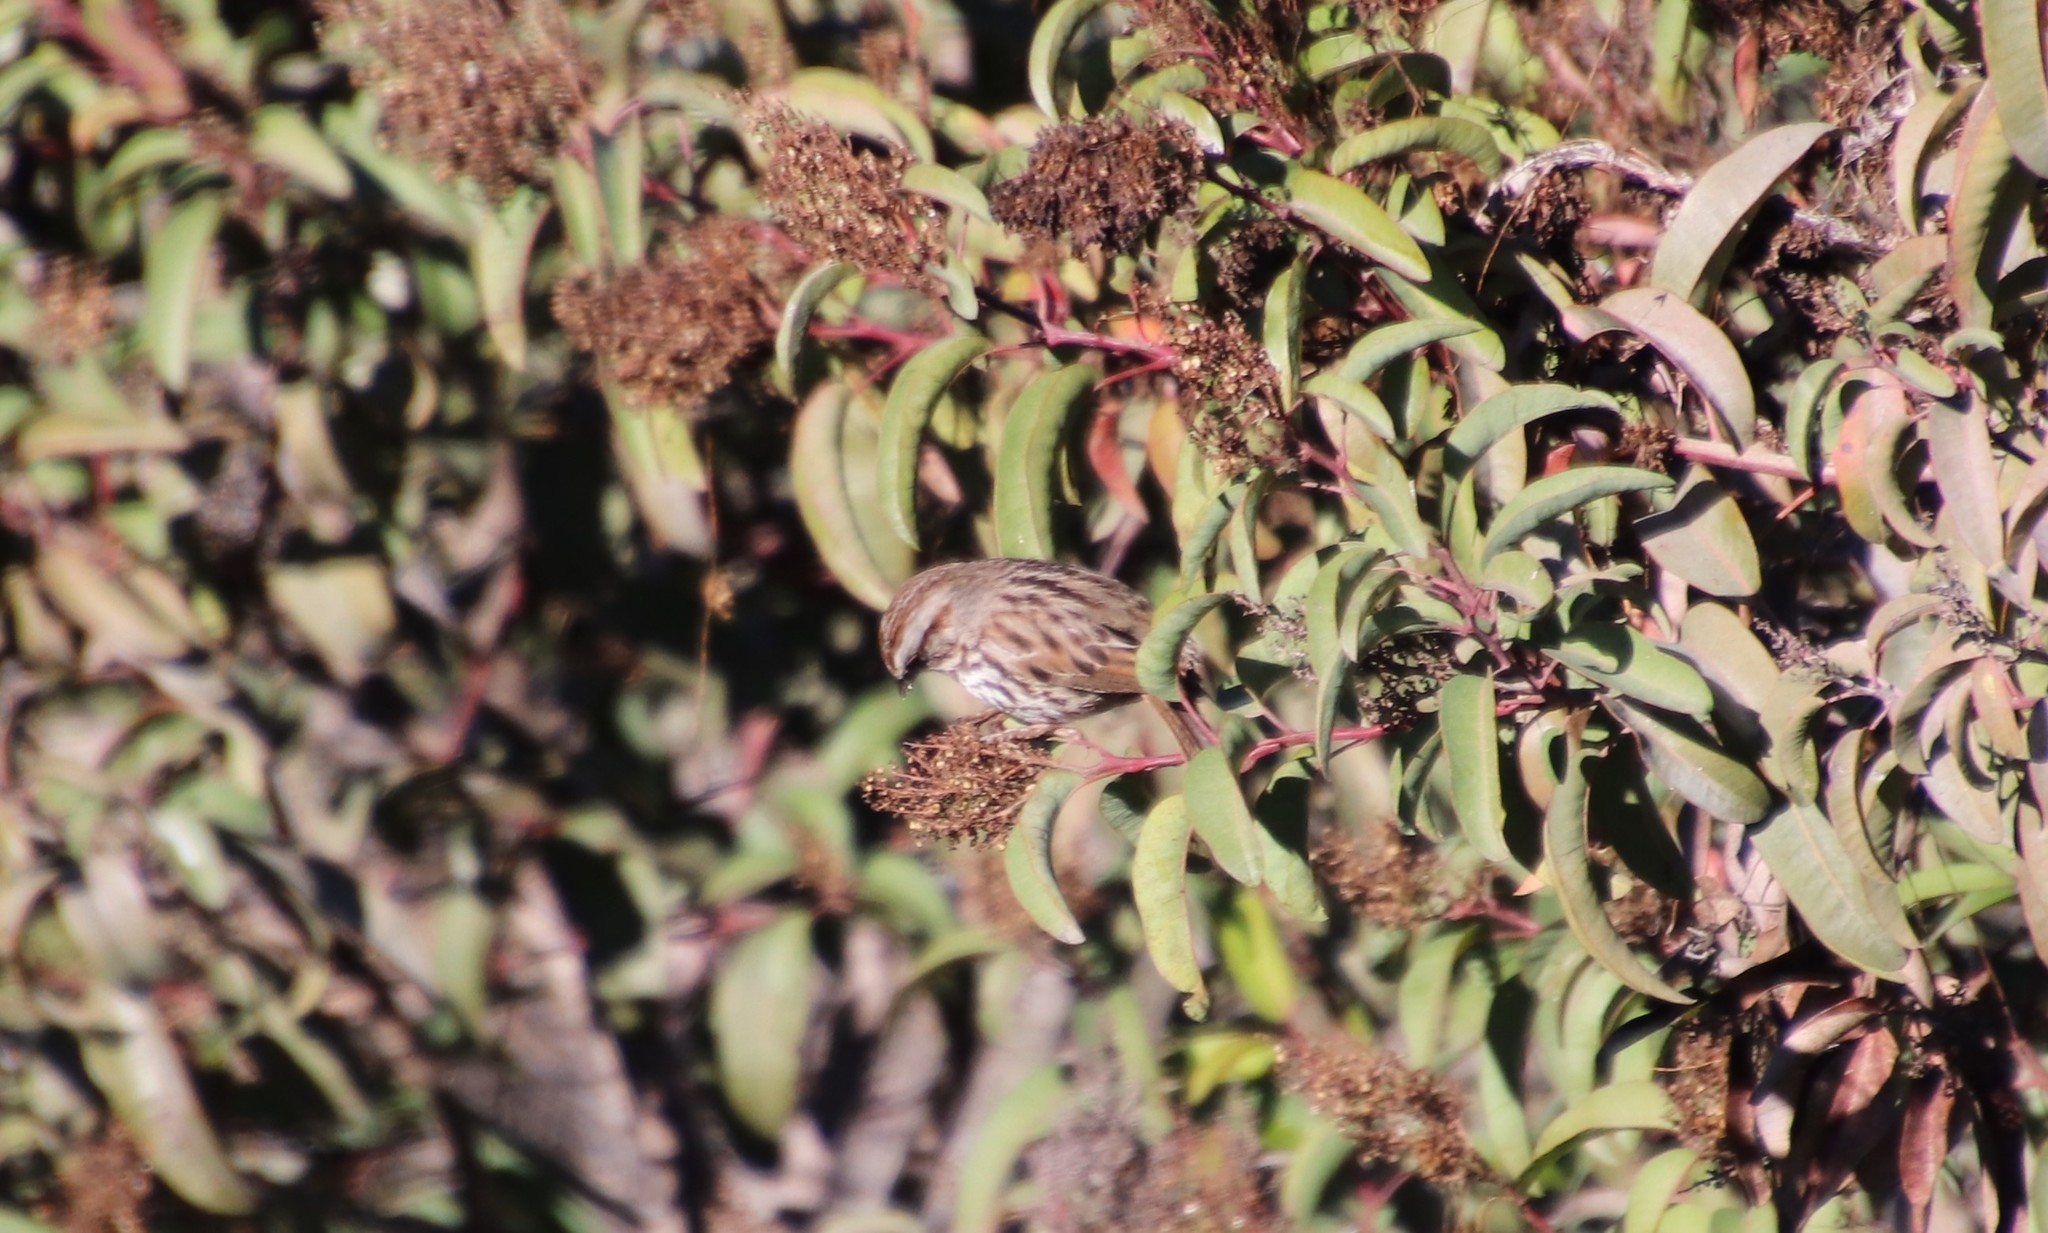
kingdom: Animalia
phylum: Chordata
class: Aves
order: Passeriformes
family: Passerellidae
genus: Melospiza
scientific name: Melospiza melodia
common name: Song sparrow
